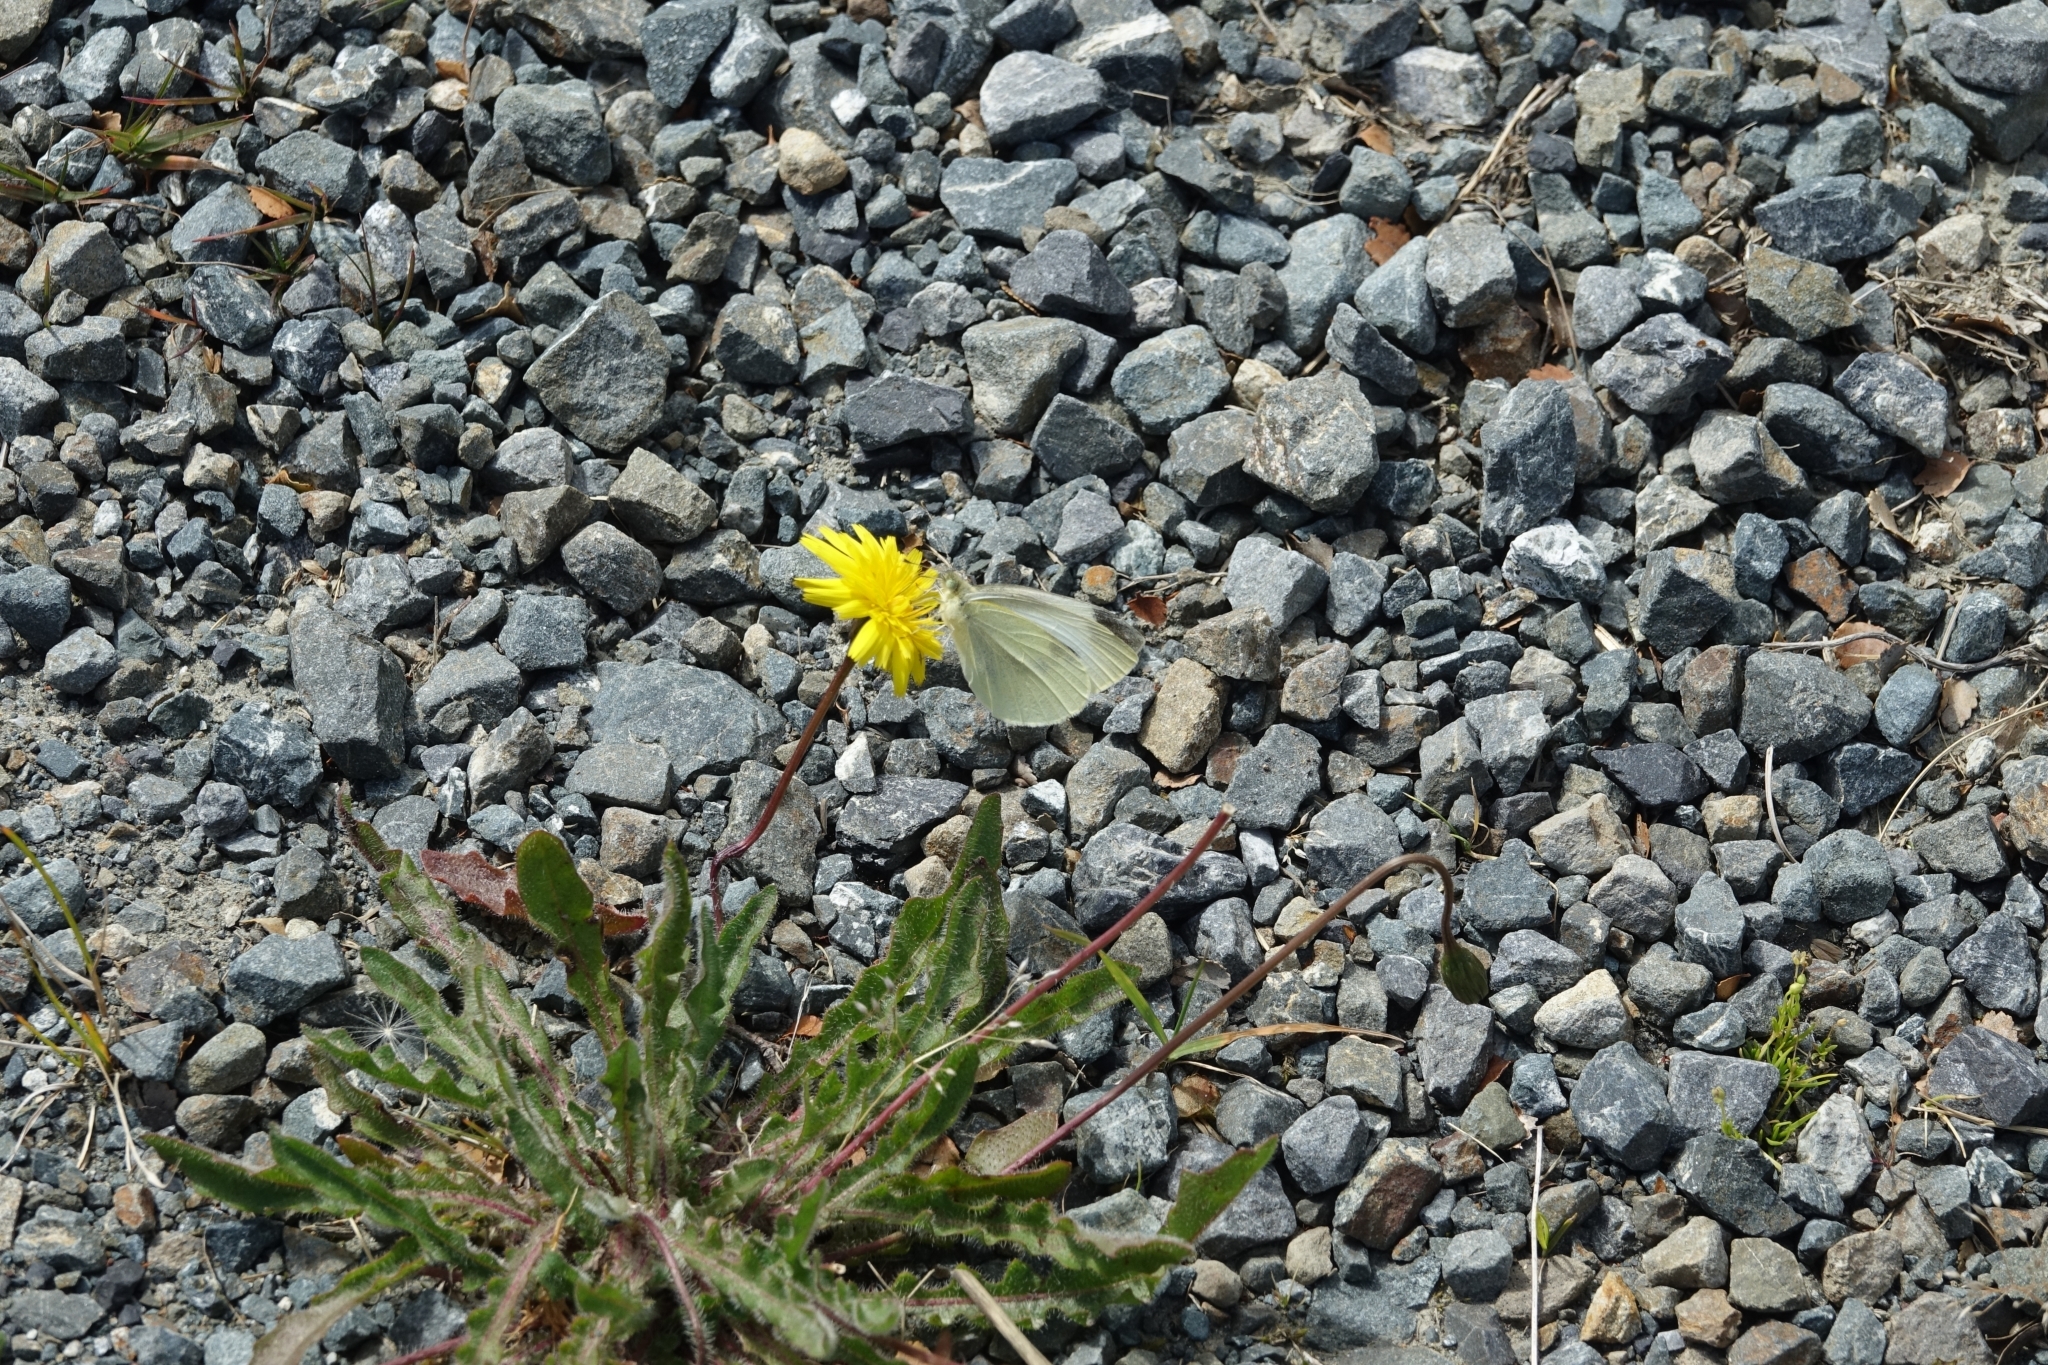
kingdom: Animalia
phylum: Arthropoda
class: Insecta
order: Lepidoptera
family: Pieridae
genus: Pieris
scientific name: Pieris rapae
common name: Small white
